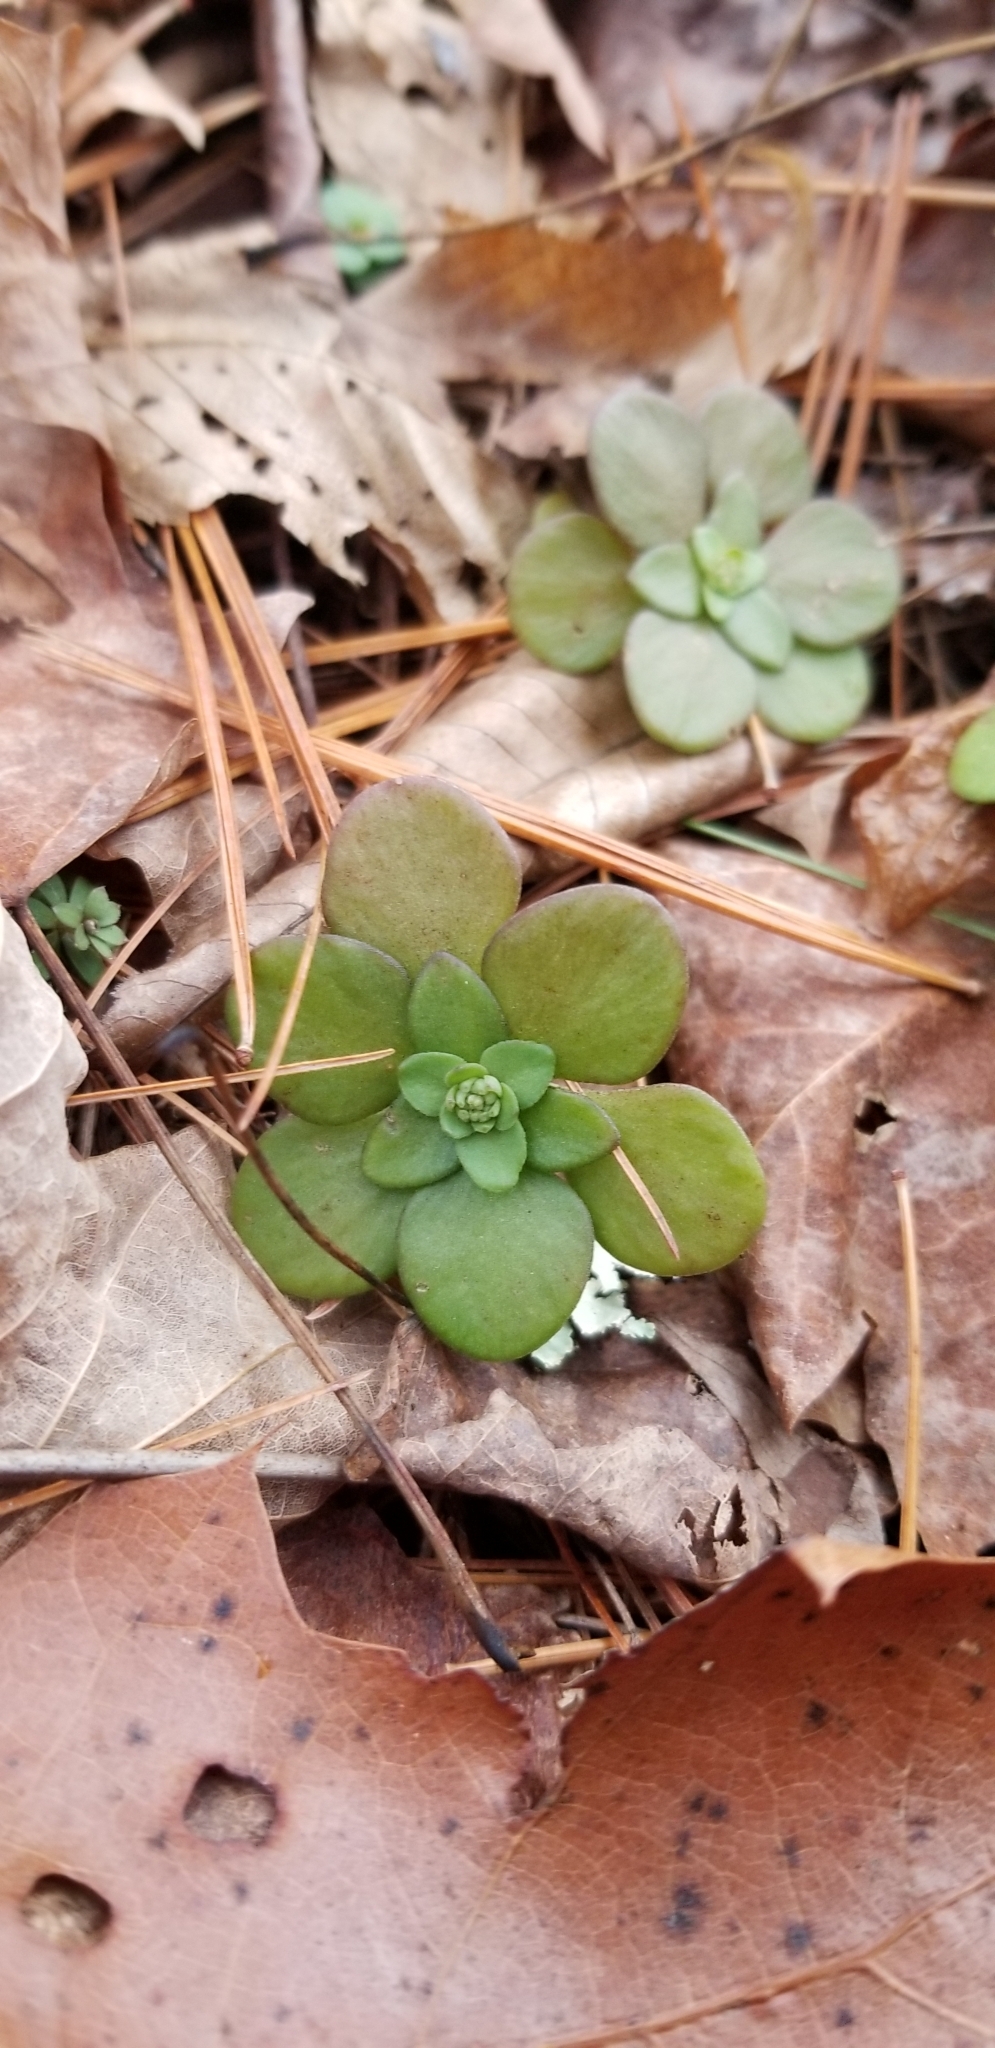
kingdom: Plantae
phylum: Tracheophyta
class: Magnoliopsida
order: Saxifragales
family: Crassulaceae
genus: Sedum
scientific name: Sedum ternatum
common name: Wild stonecrop
